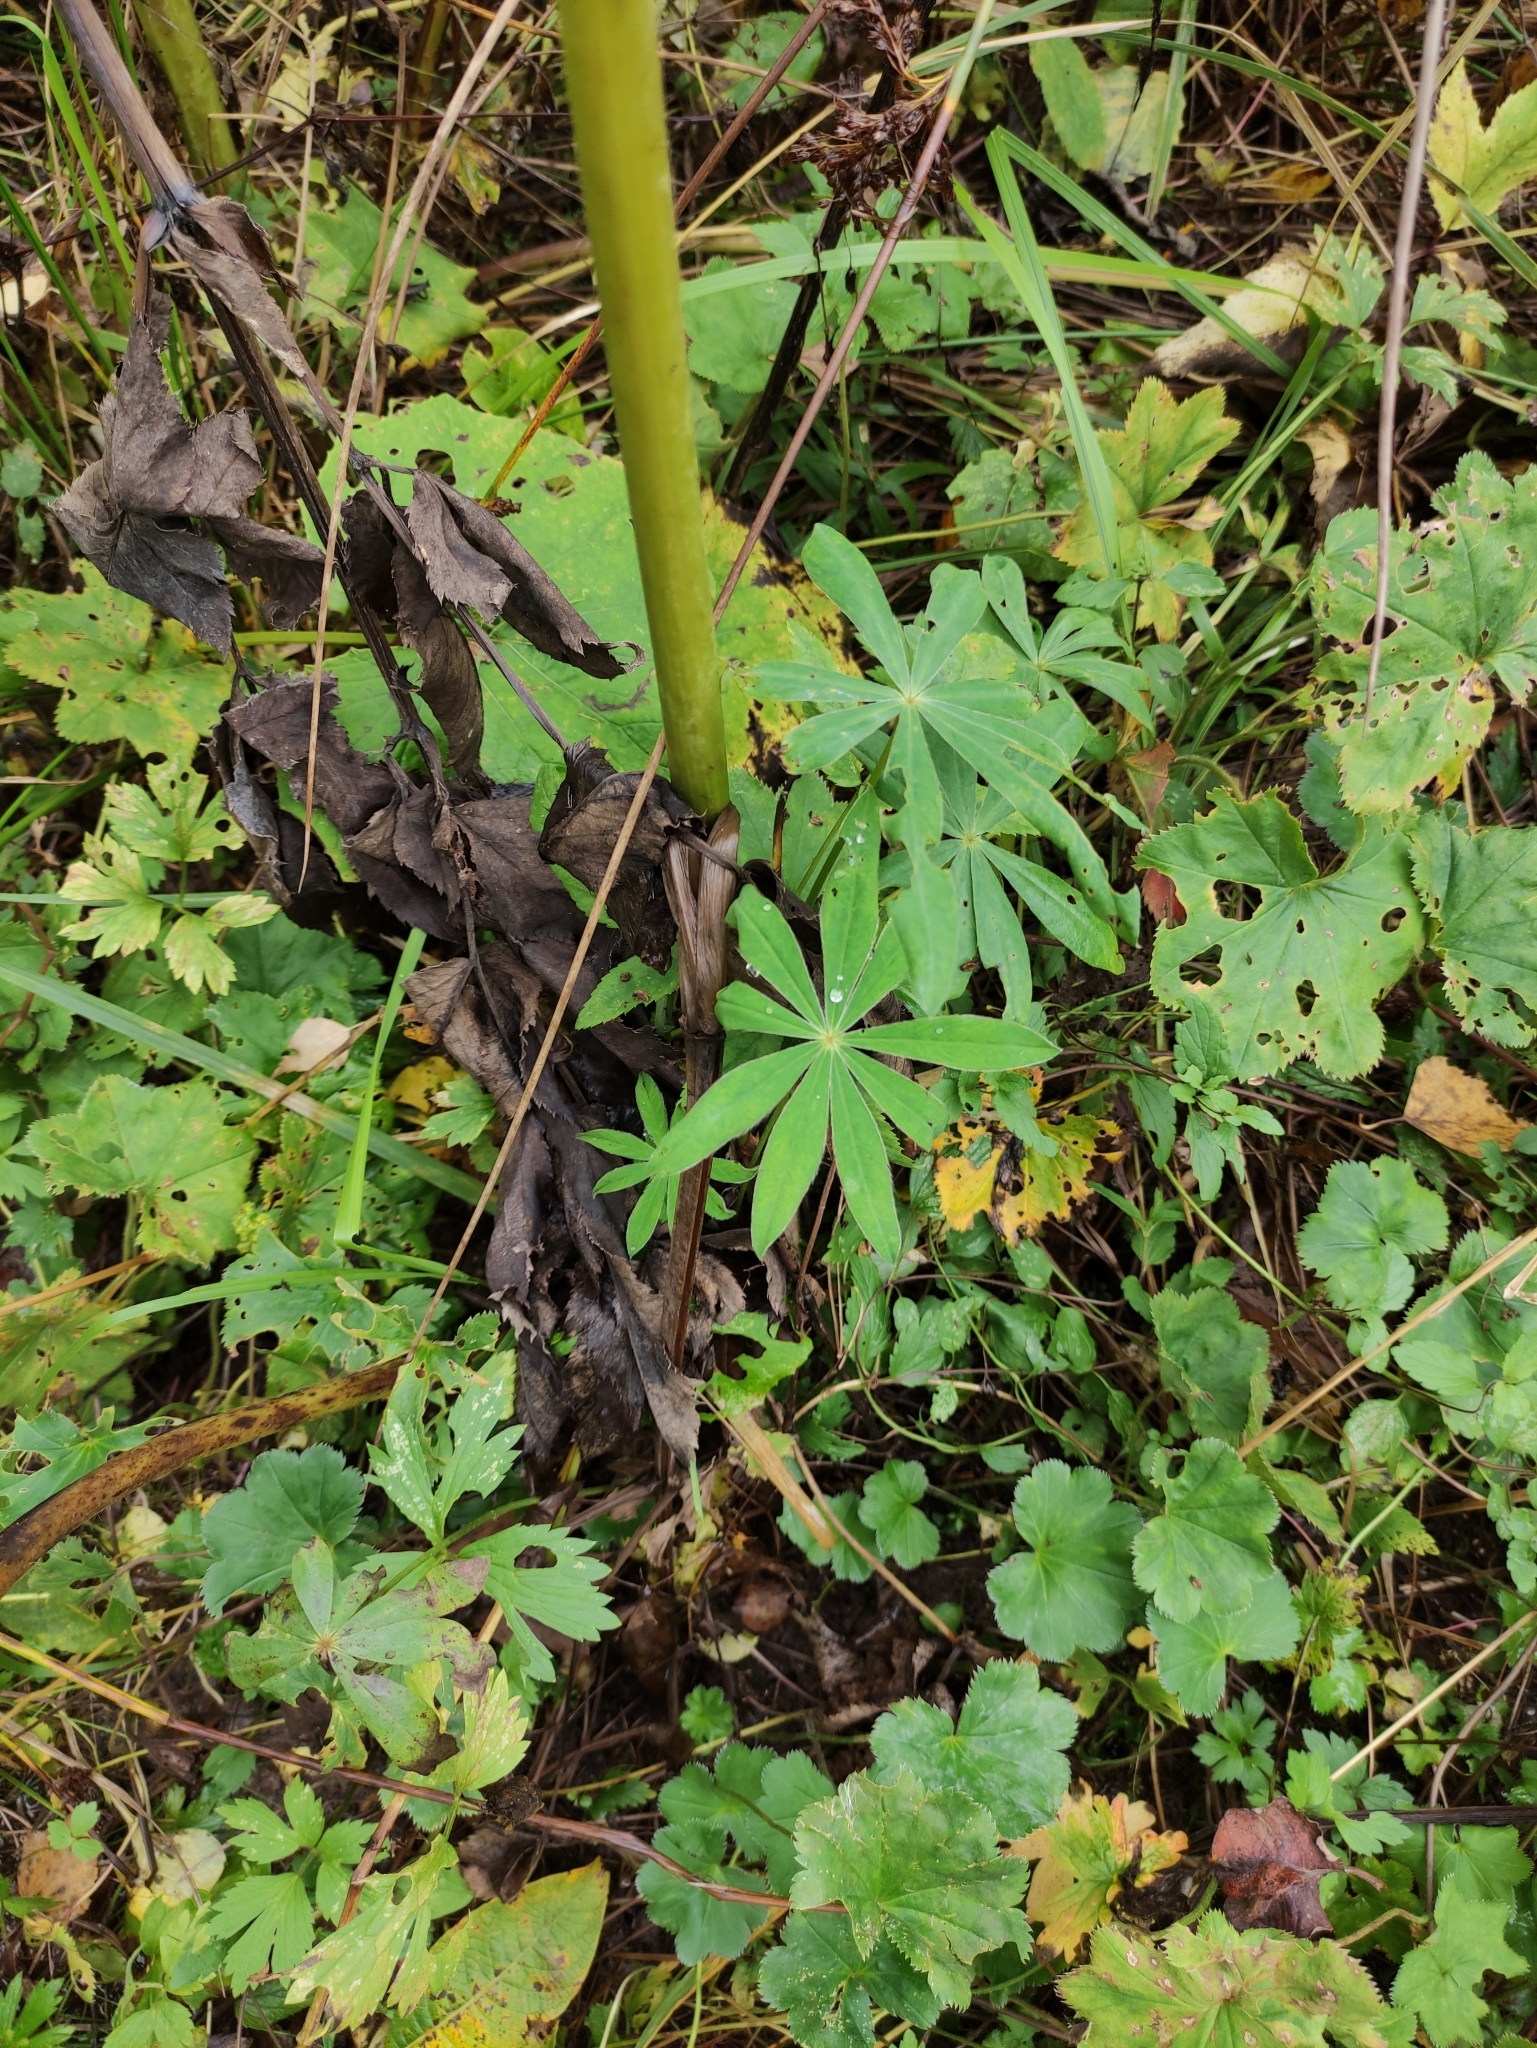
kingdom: Plantae
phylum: Tracheophyta
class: Magnoliopsida
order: Fabales
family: Fabaceae
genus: Lupinus
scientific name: Lupinus polyphyllus
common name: Garden lupin
